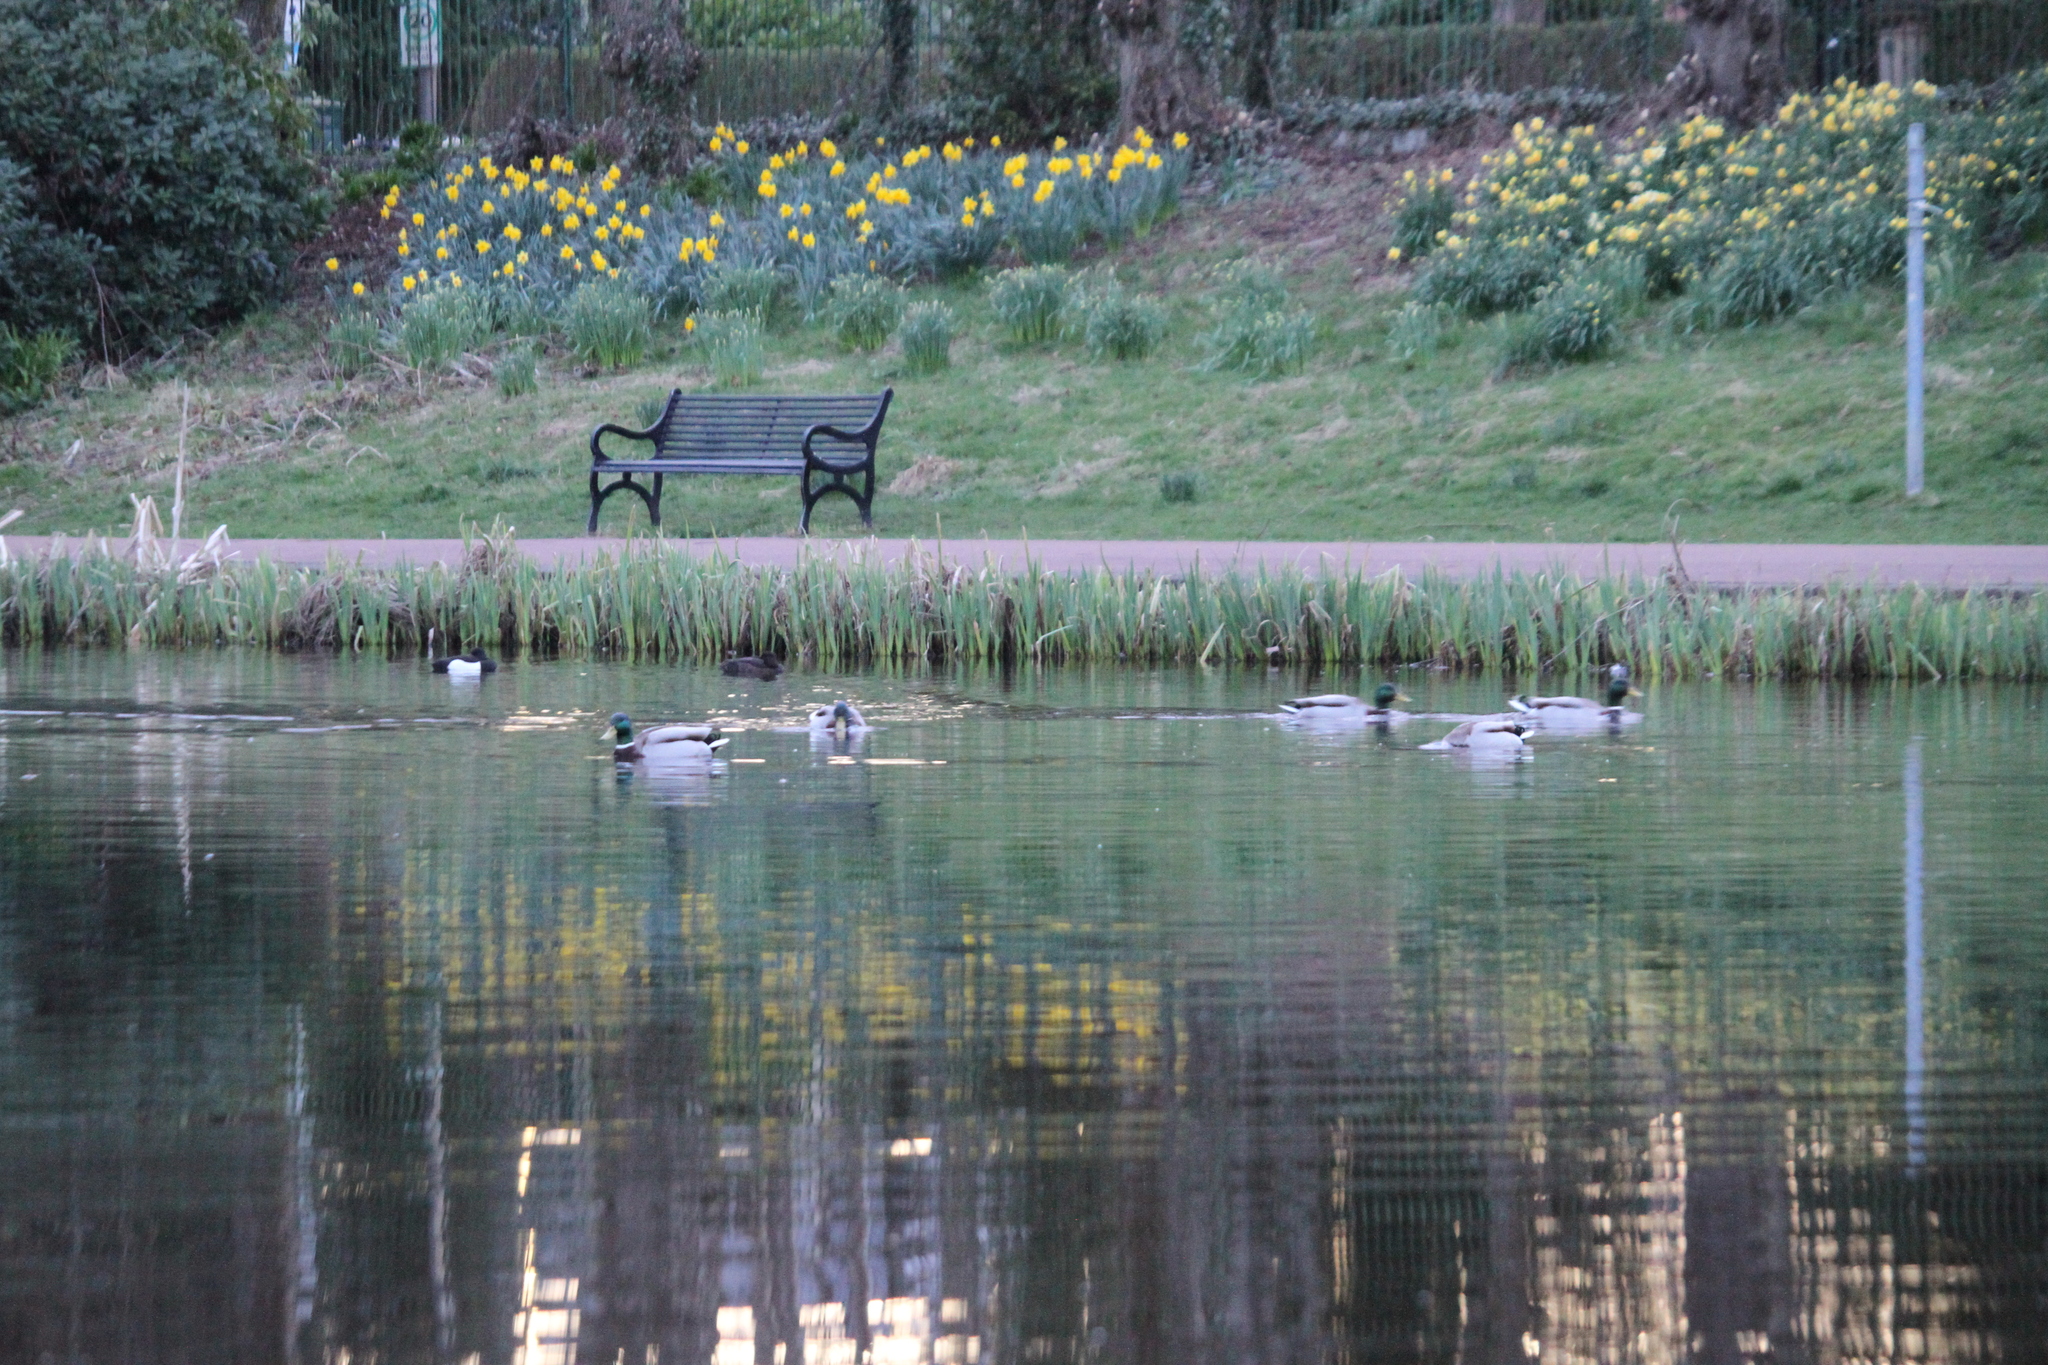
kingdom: Animalia
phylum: Chordata
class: Aves
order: Anseriformes
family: Anatidae
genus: Anas
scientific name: Anas platyrhynchos
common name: Mallard
